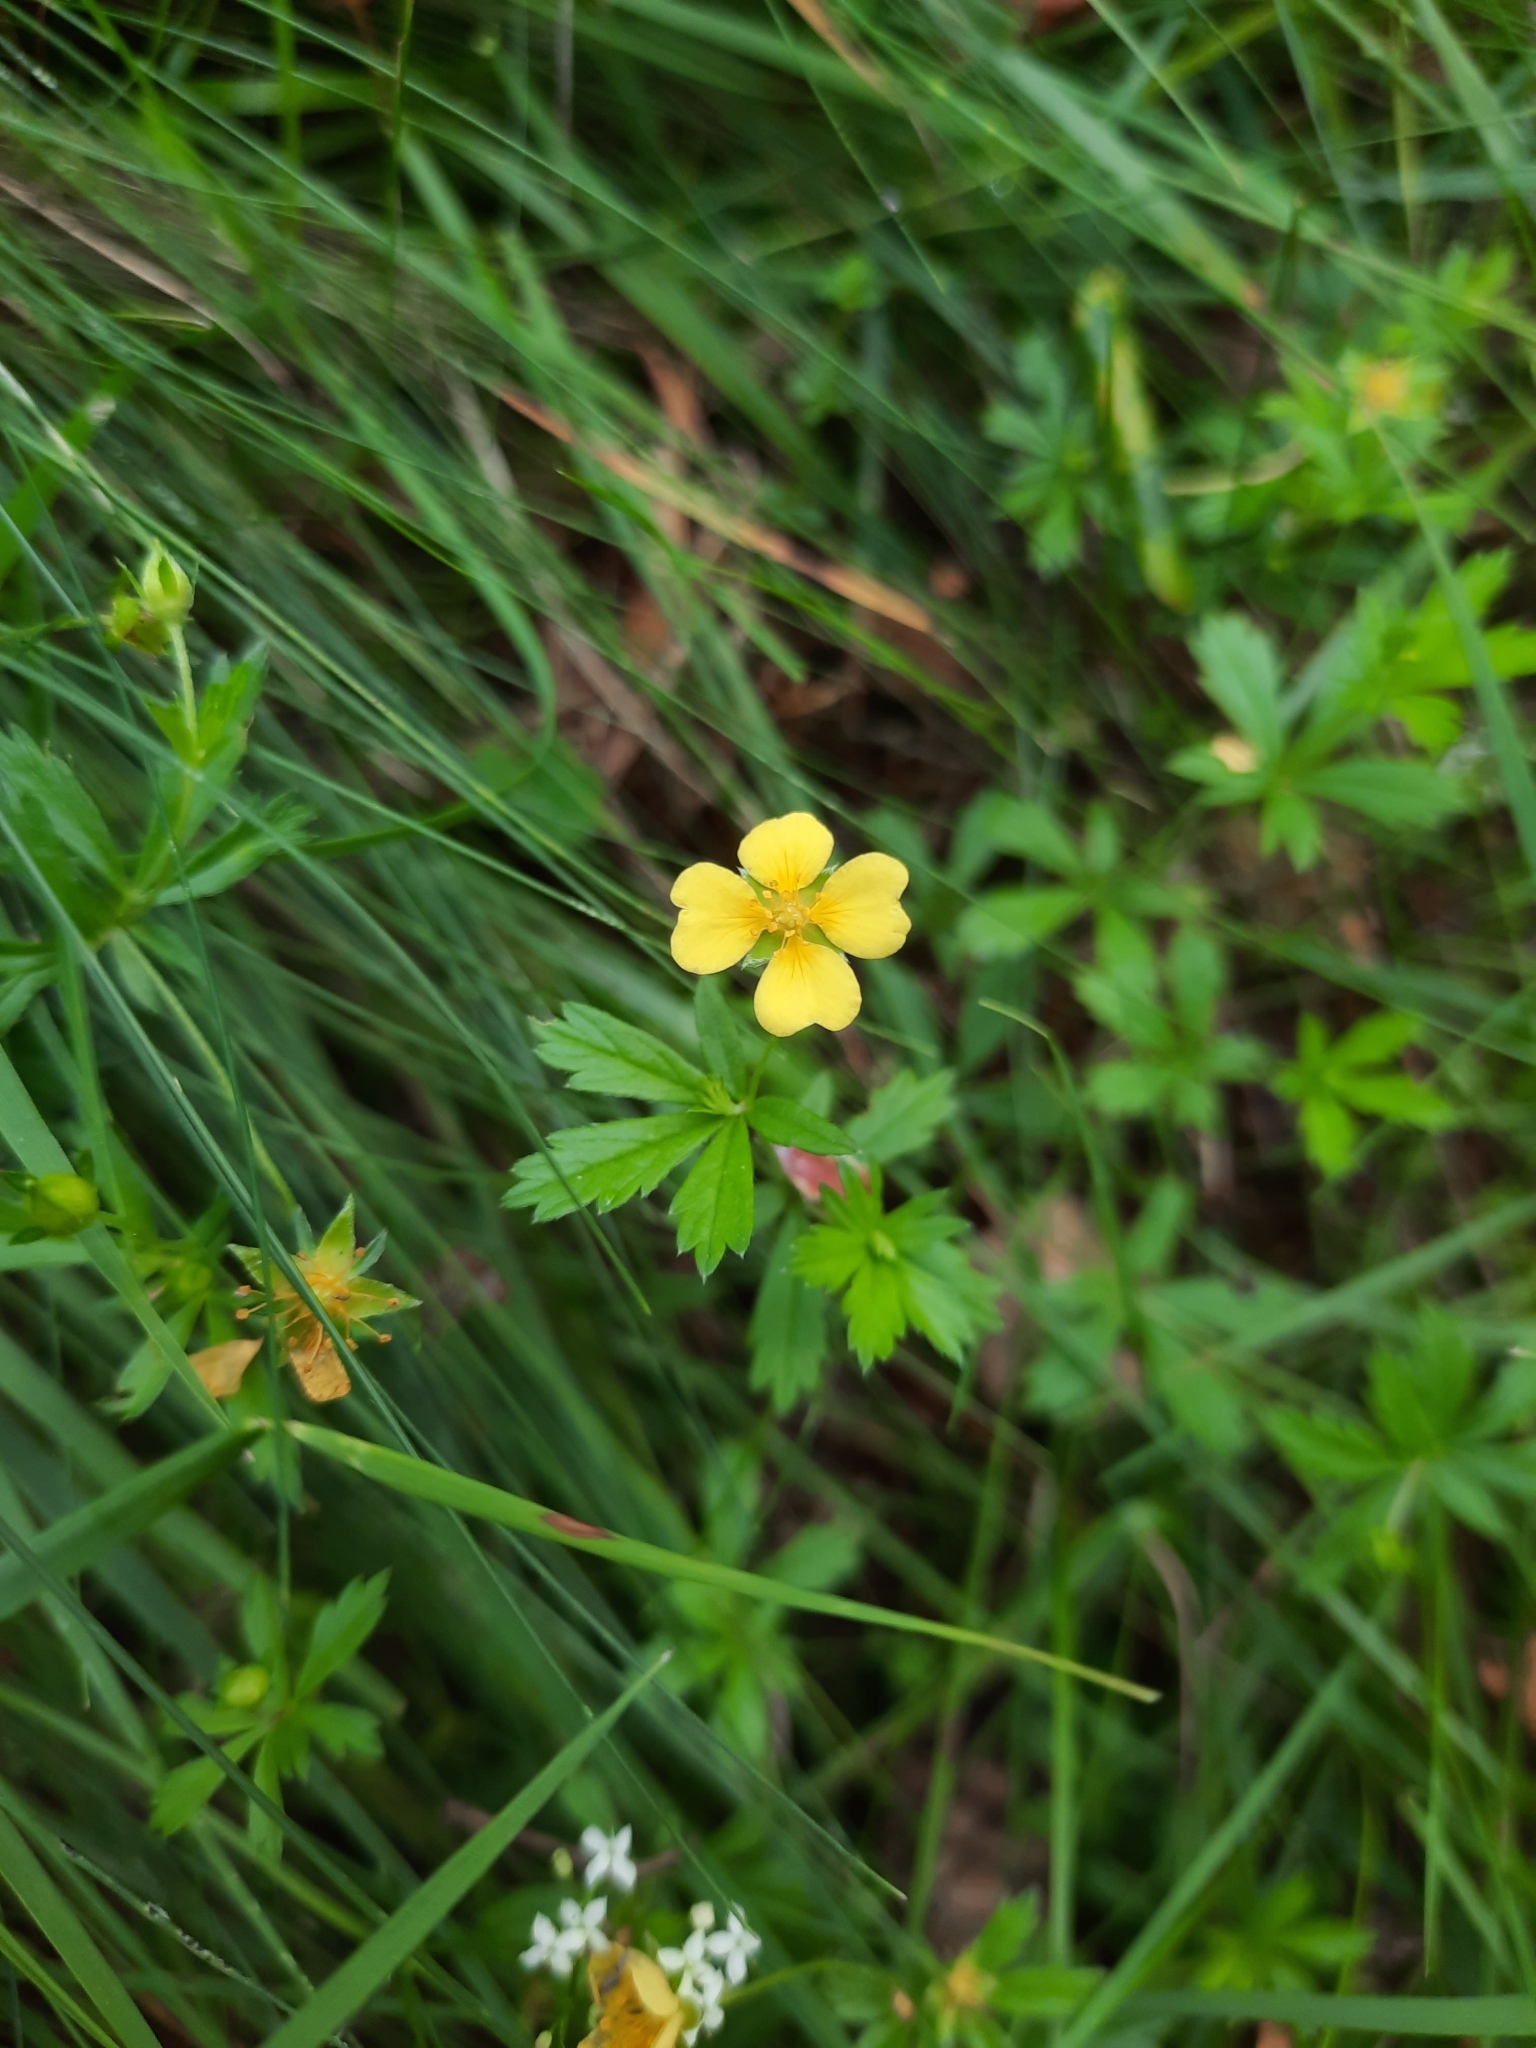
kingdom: Plantae
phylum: Tracheophyta
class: Magnoliopsida
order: Rosales
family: Rosaceae
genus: Potentilla
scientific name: Potentilla erecta
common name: Tormentil
